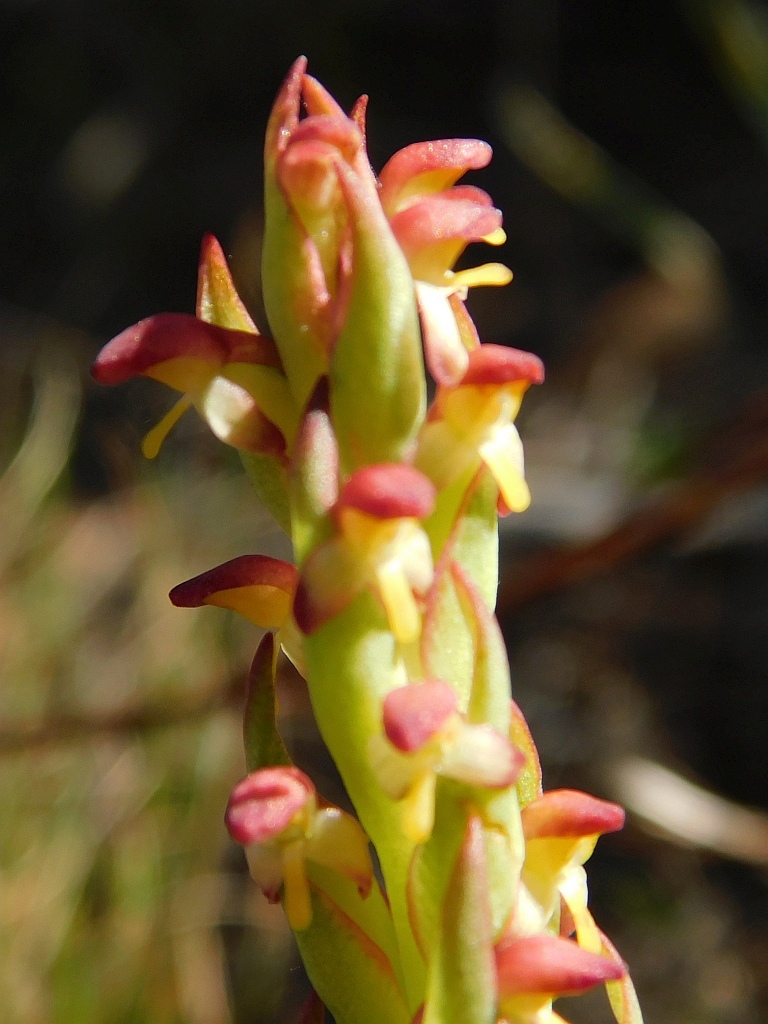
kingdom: Plantae
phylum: Tracheophyta
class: Liliopsida
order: Asparagales
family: Orchidaceae
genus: Disa
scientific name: Disa bracteata
